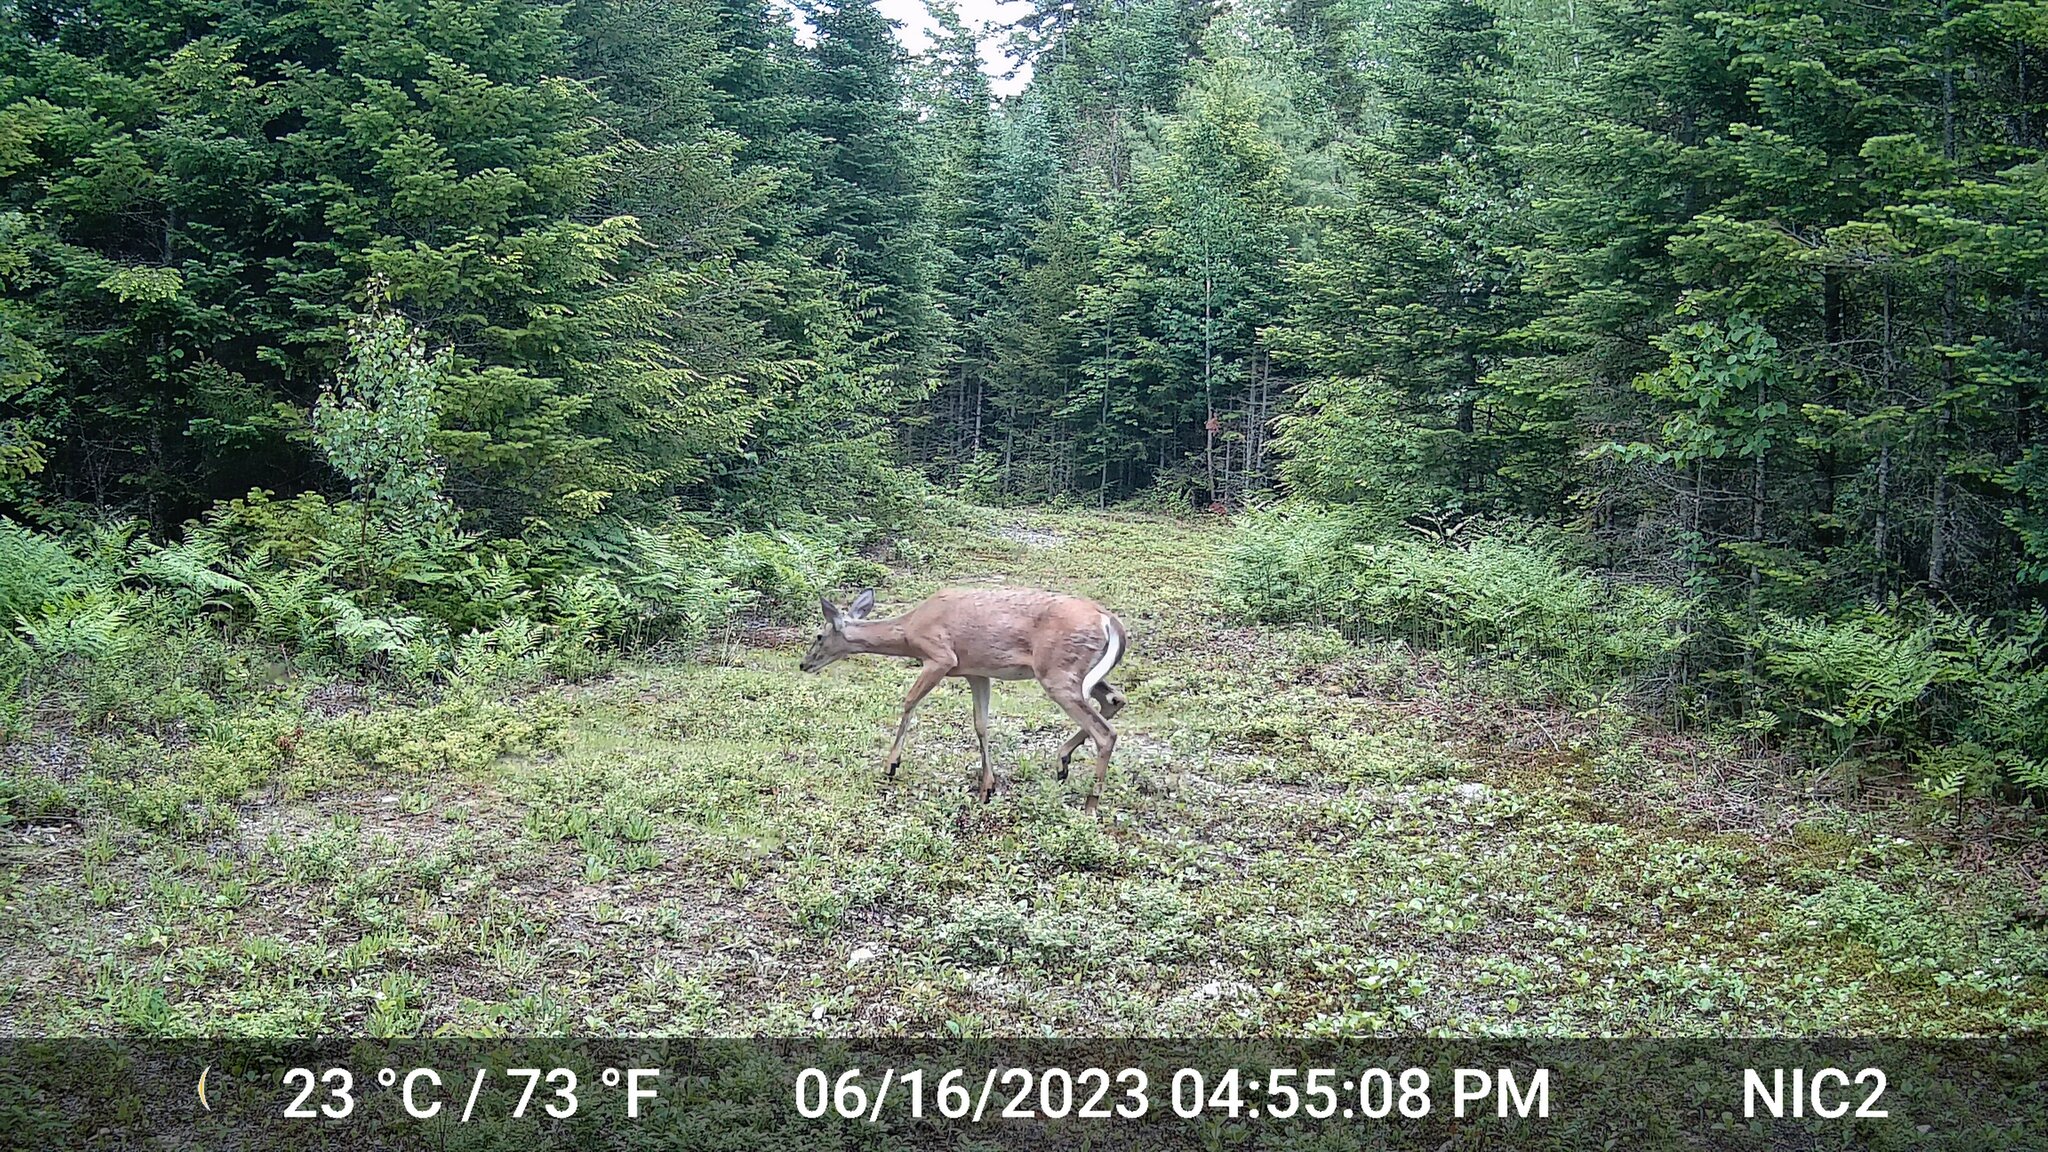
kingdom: Animalia
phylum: Chordata
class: Mammalia
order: Artiodactyla
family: Cervidae
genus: Odocoileus
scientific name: Odocoileus virginianus
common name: White-tailed deer
